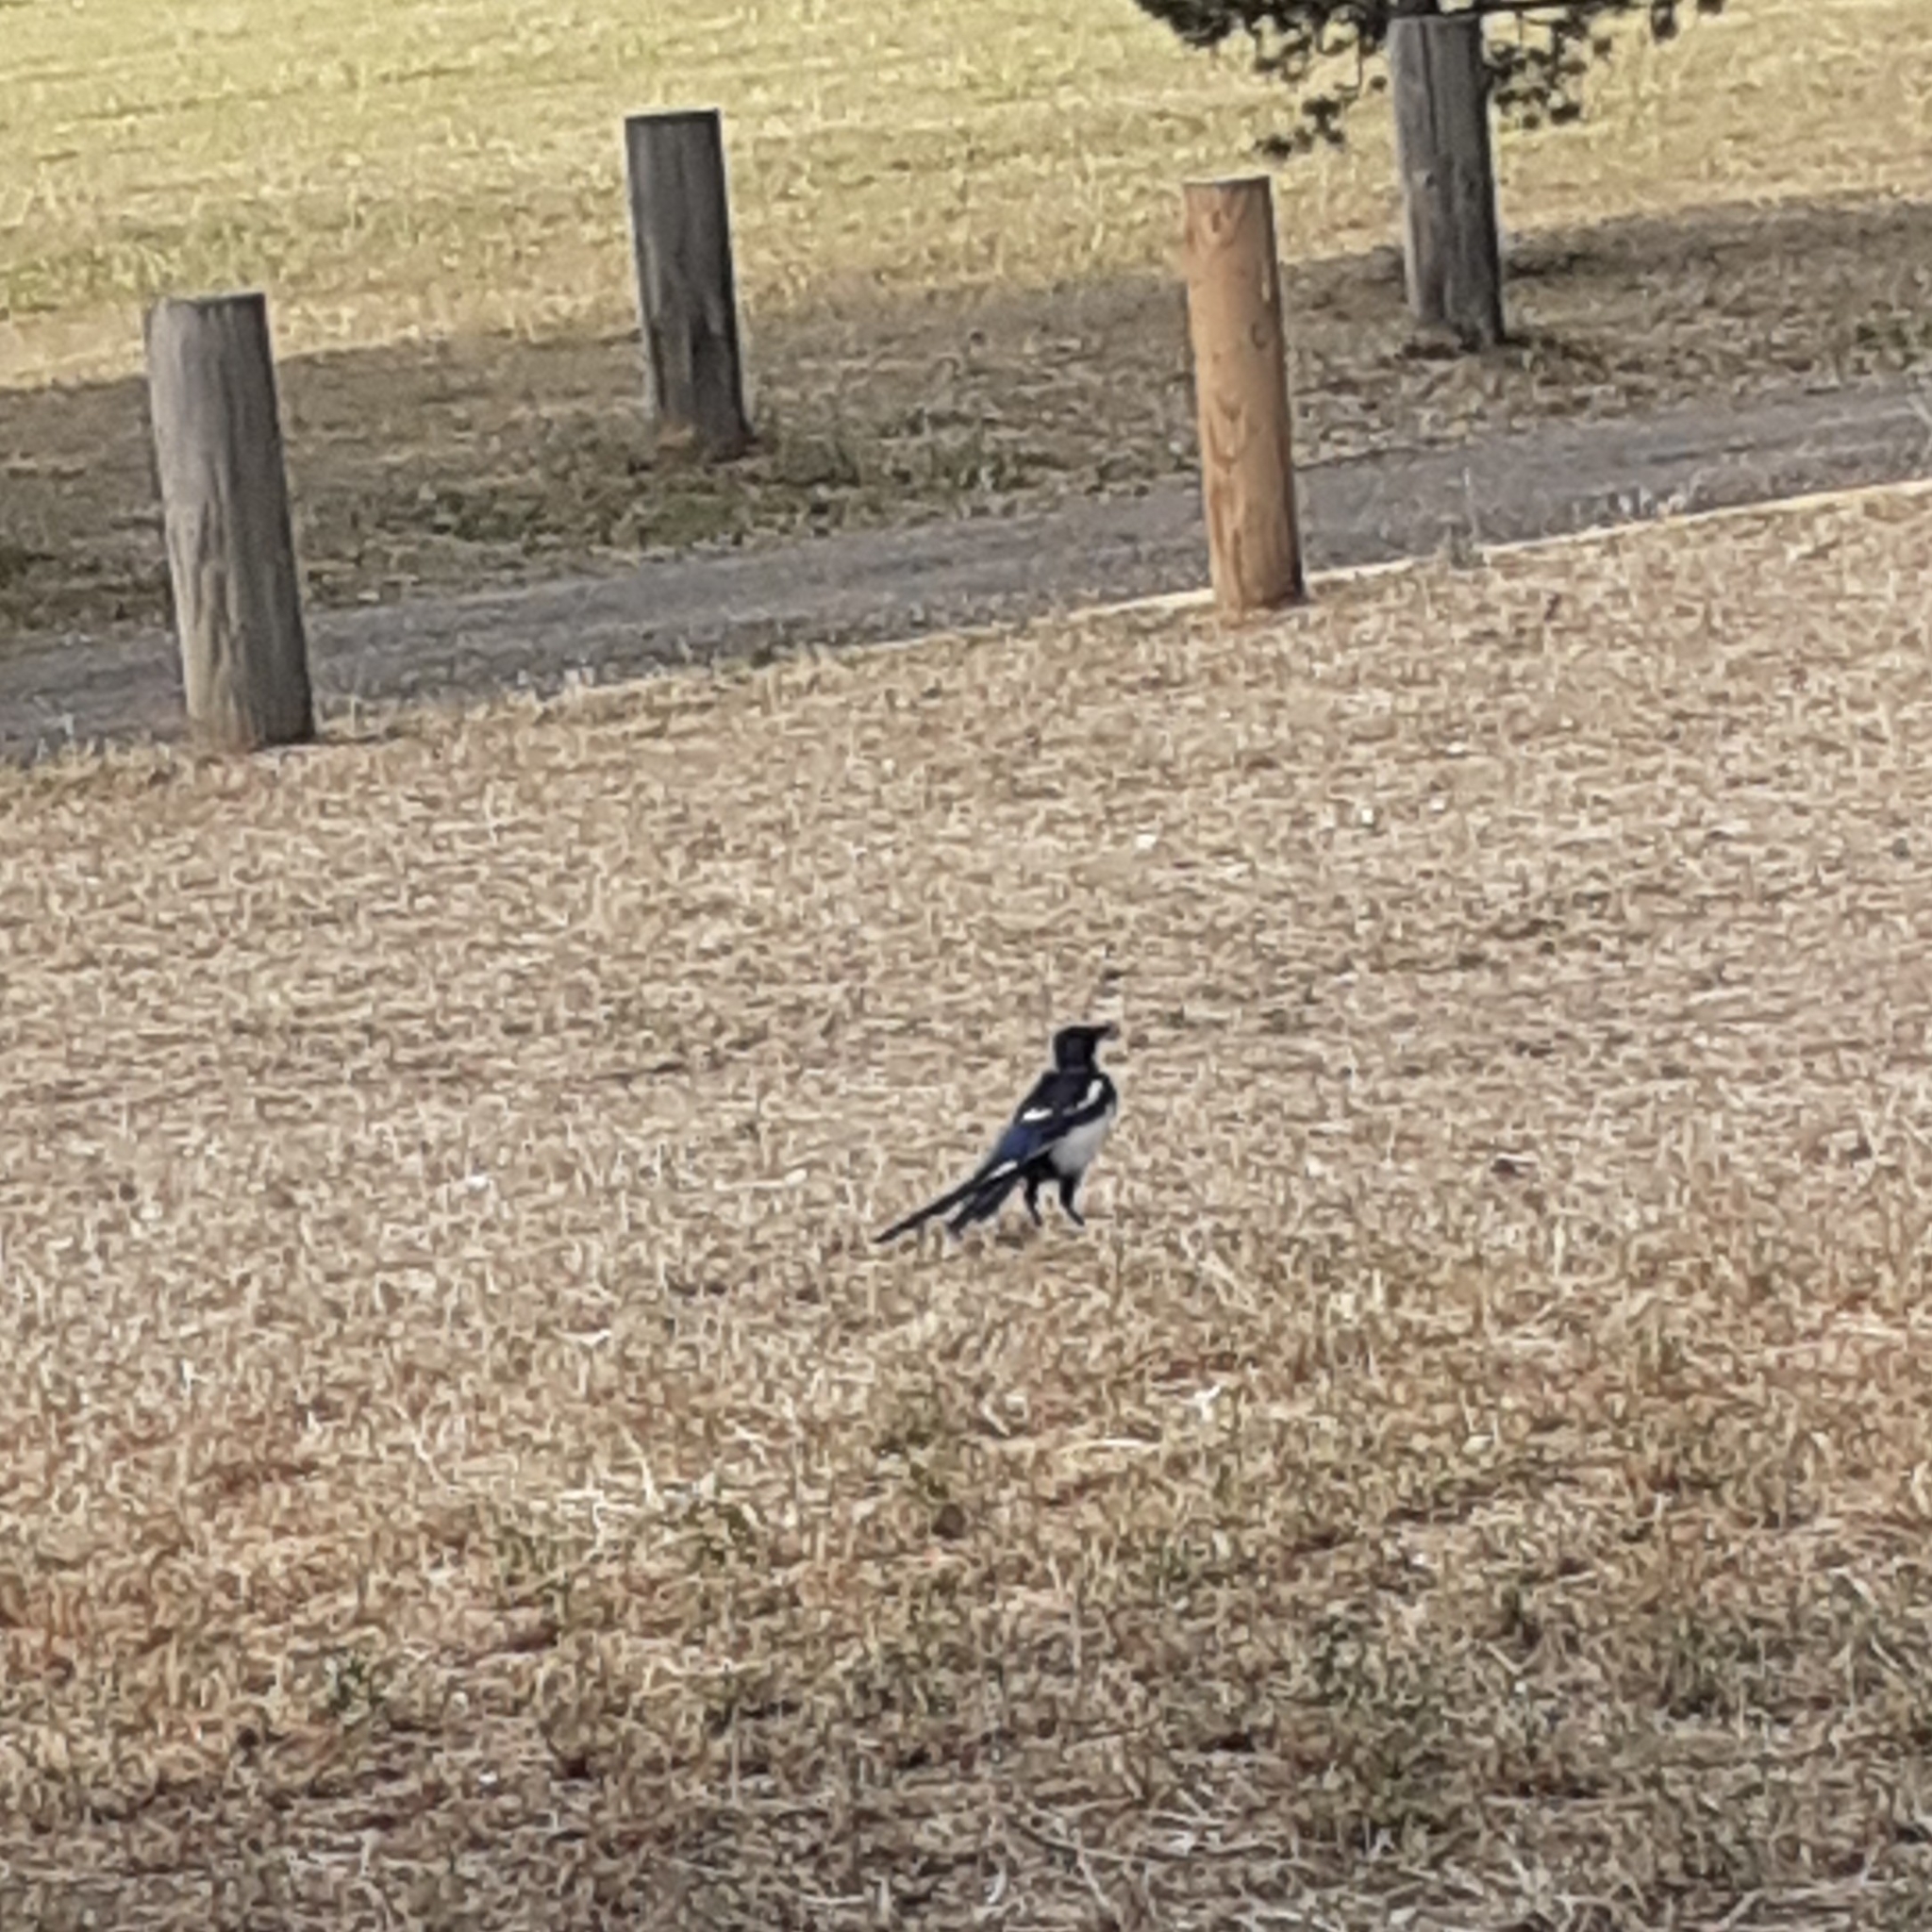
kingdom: Animalia
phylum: Chordata
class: Aves
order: Passeriformes
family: Corvidae
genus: Pica
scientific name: Pica pica
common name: Eurasian magpie
